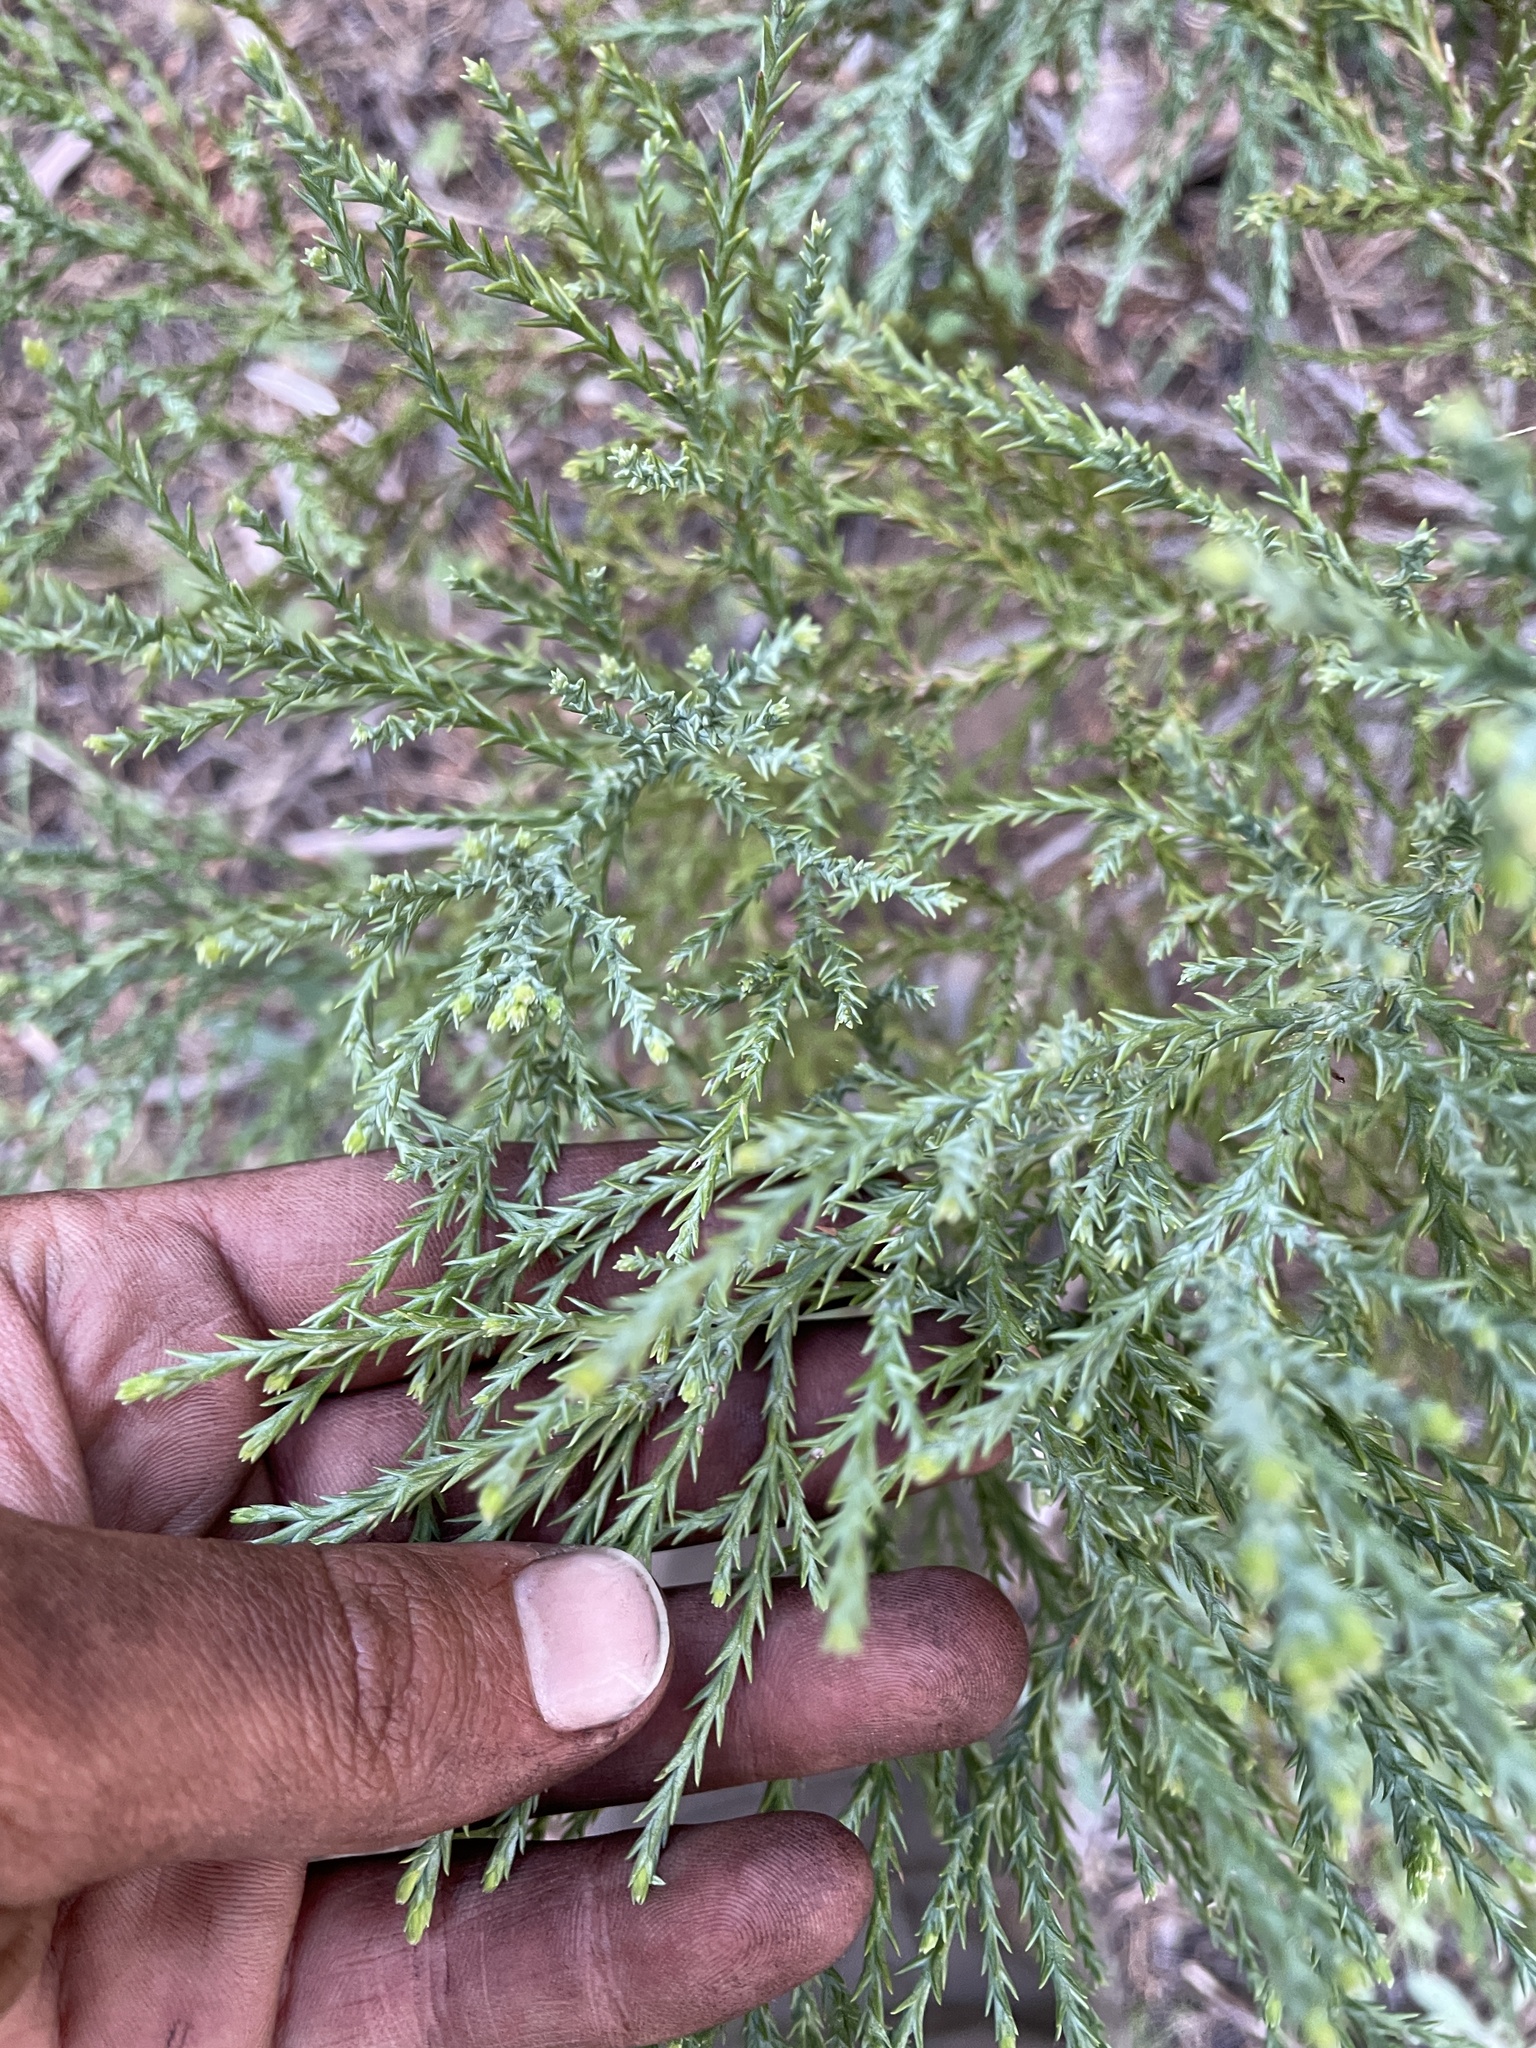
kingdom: Plantae
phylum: Tracheophyta
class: Pinopsida
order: Pinales
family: Cupressaceae
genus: Sequoiadendron
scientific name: Sequoiadendron giganteum
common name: Wellingtonia
